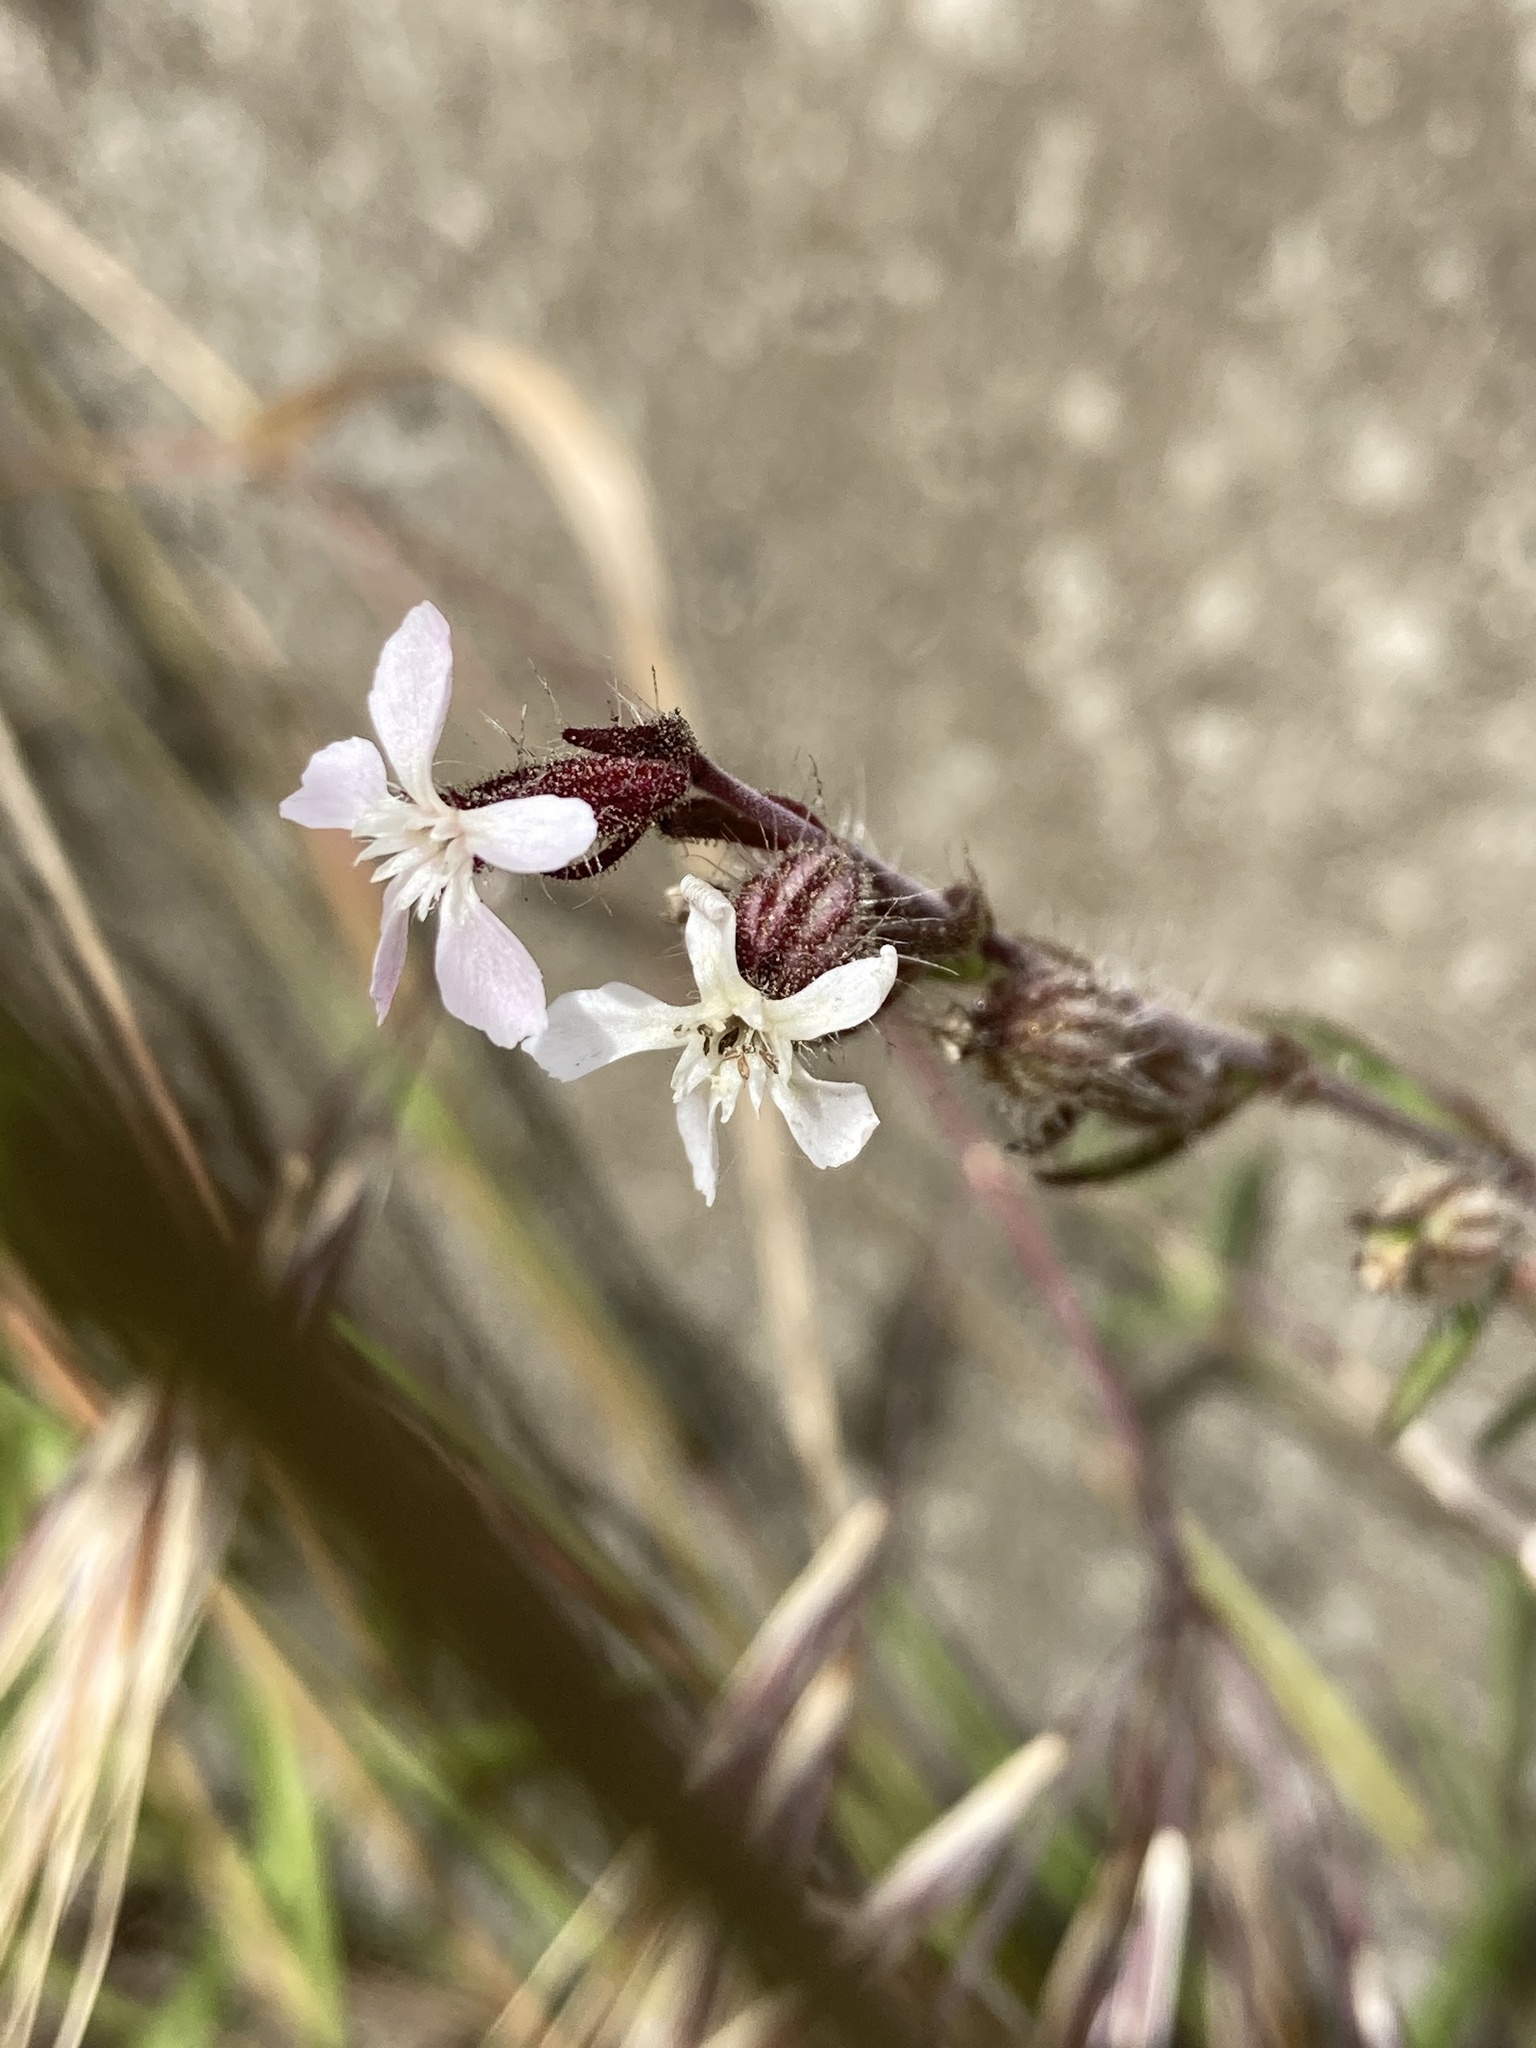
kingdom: Plantae
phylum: Tracheophyta
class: Magnoliopsida
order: Caryophyllales
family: Caryophyllaceae
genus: Silene
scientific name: Silene gallica
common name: Small-flowered catchfly
